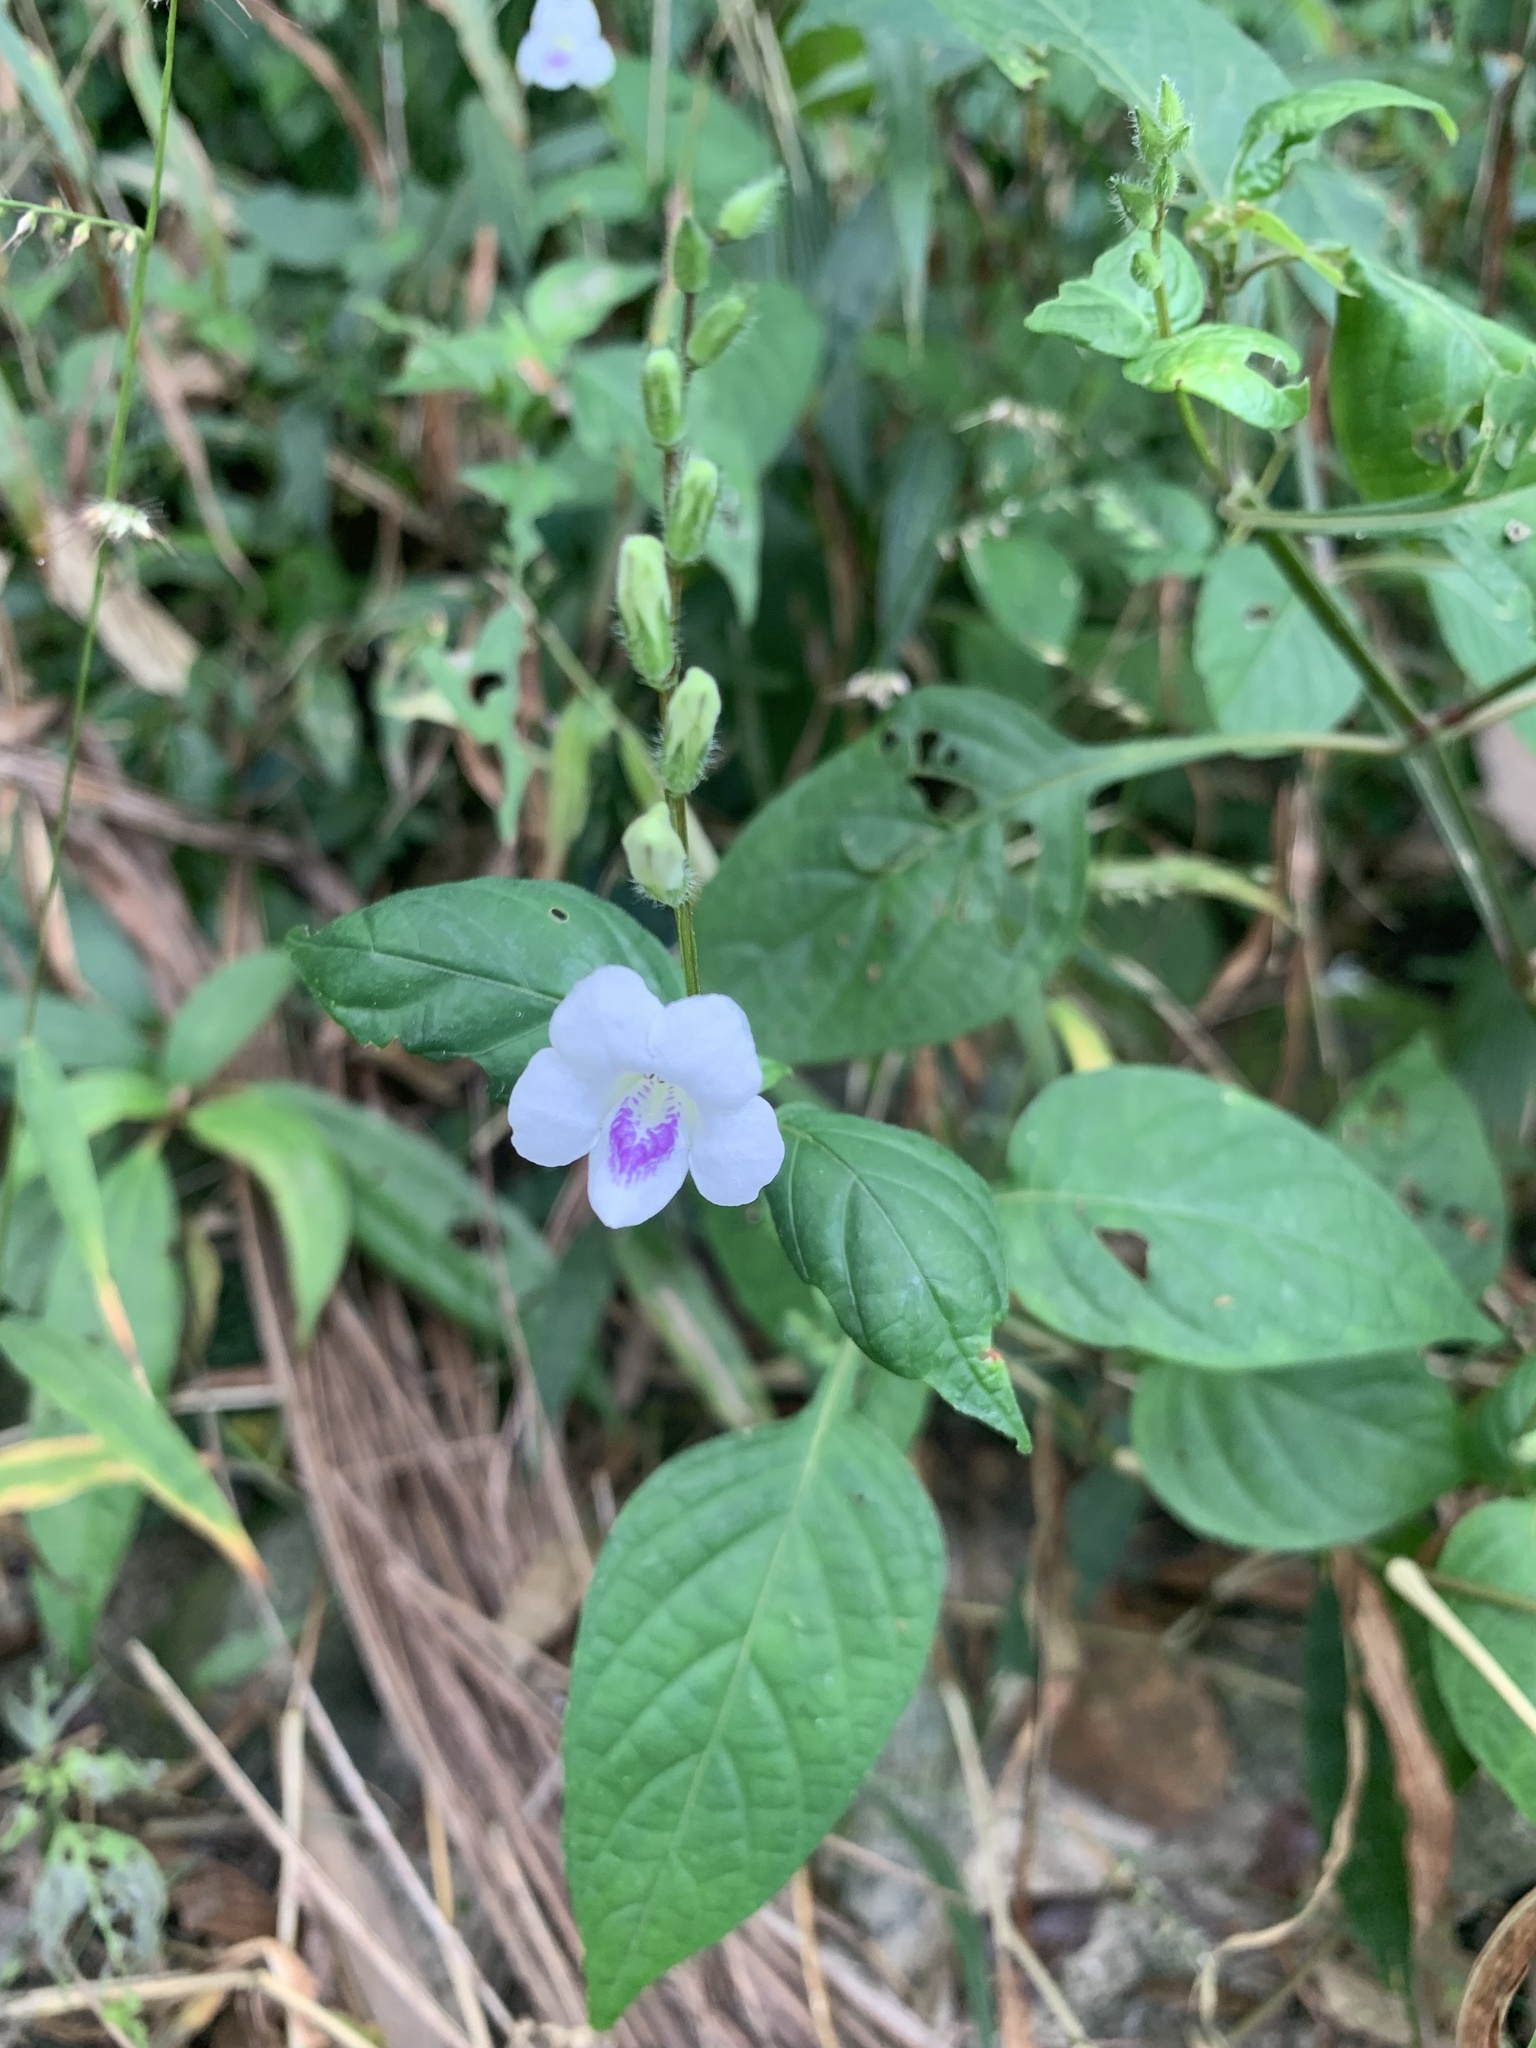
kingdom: Plantae
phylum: Tracheophyta
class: Magnoliopsida
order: Lamiales
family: Acanthaceae
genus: Asystasia
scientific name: Asystasia intrusa
